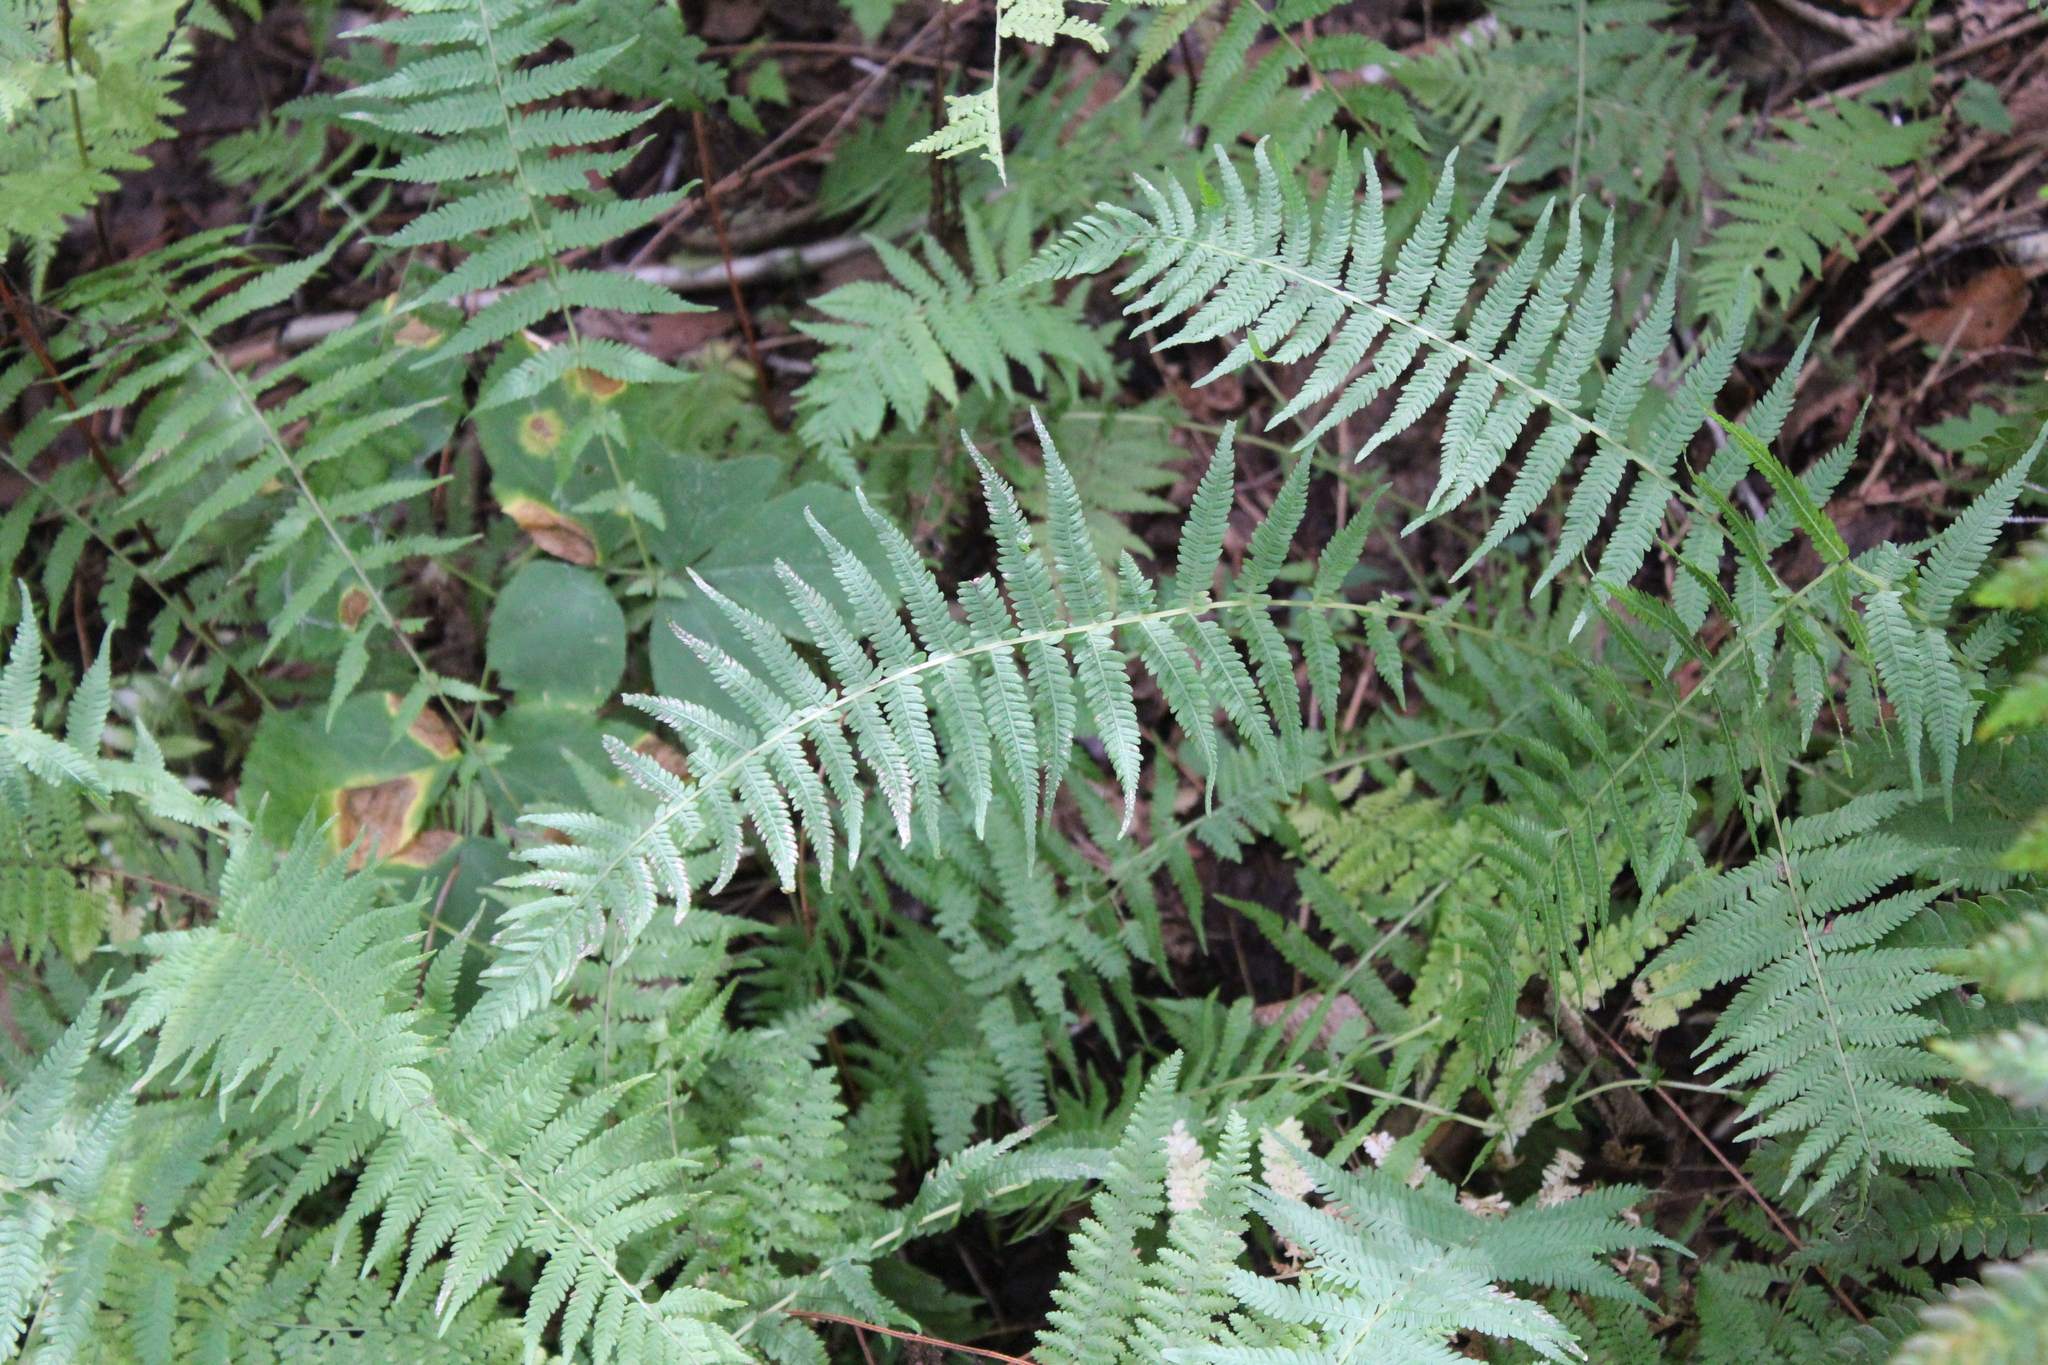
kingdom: Plantae
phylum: Tracheophyta
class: Polypodiopsida
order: Polypodiales
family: Thelypteridaceae
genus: Amauropelta
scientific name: Amauropelta noveboracensis
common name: New york fern
